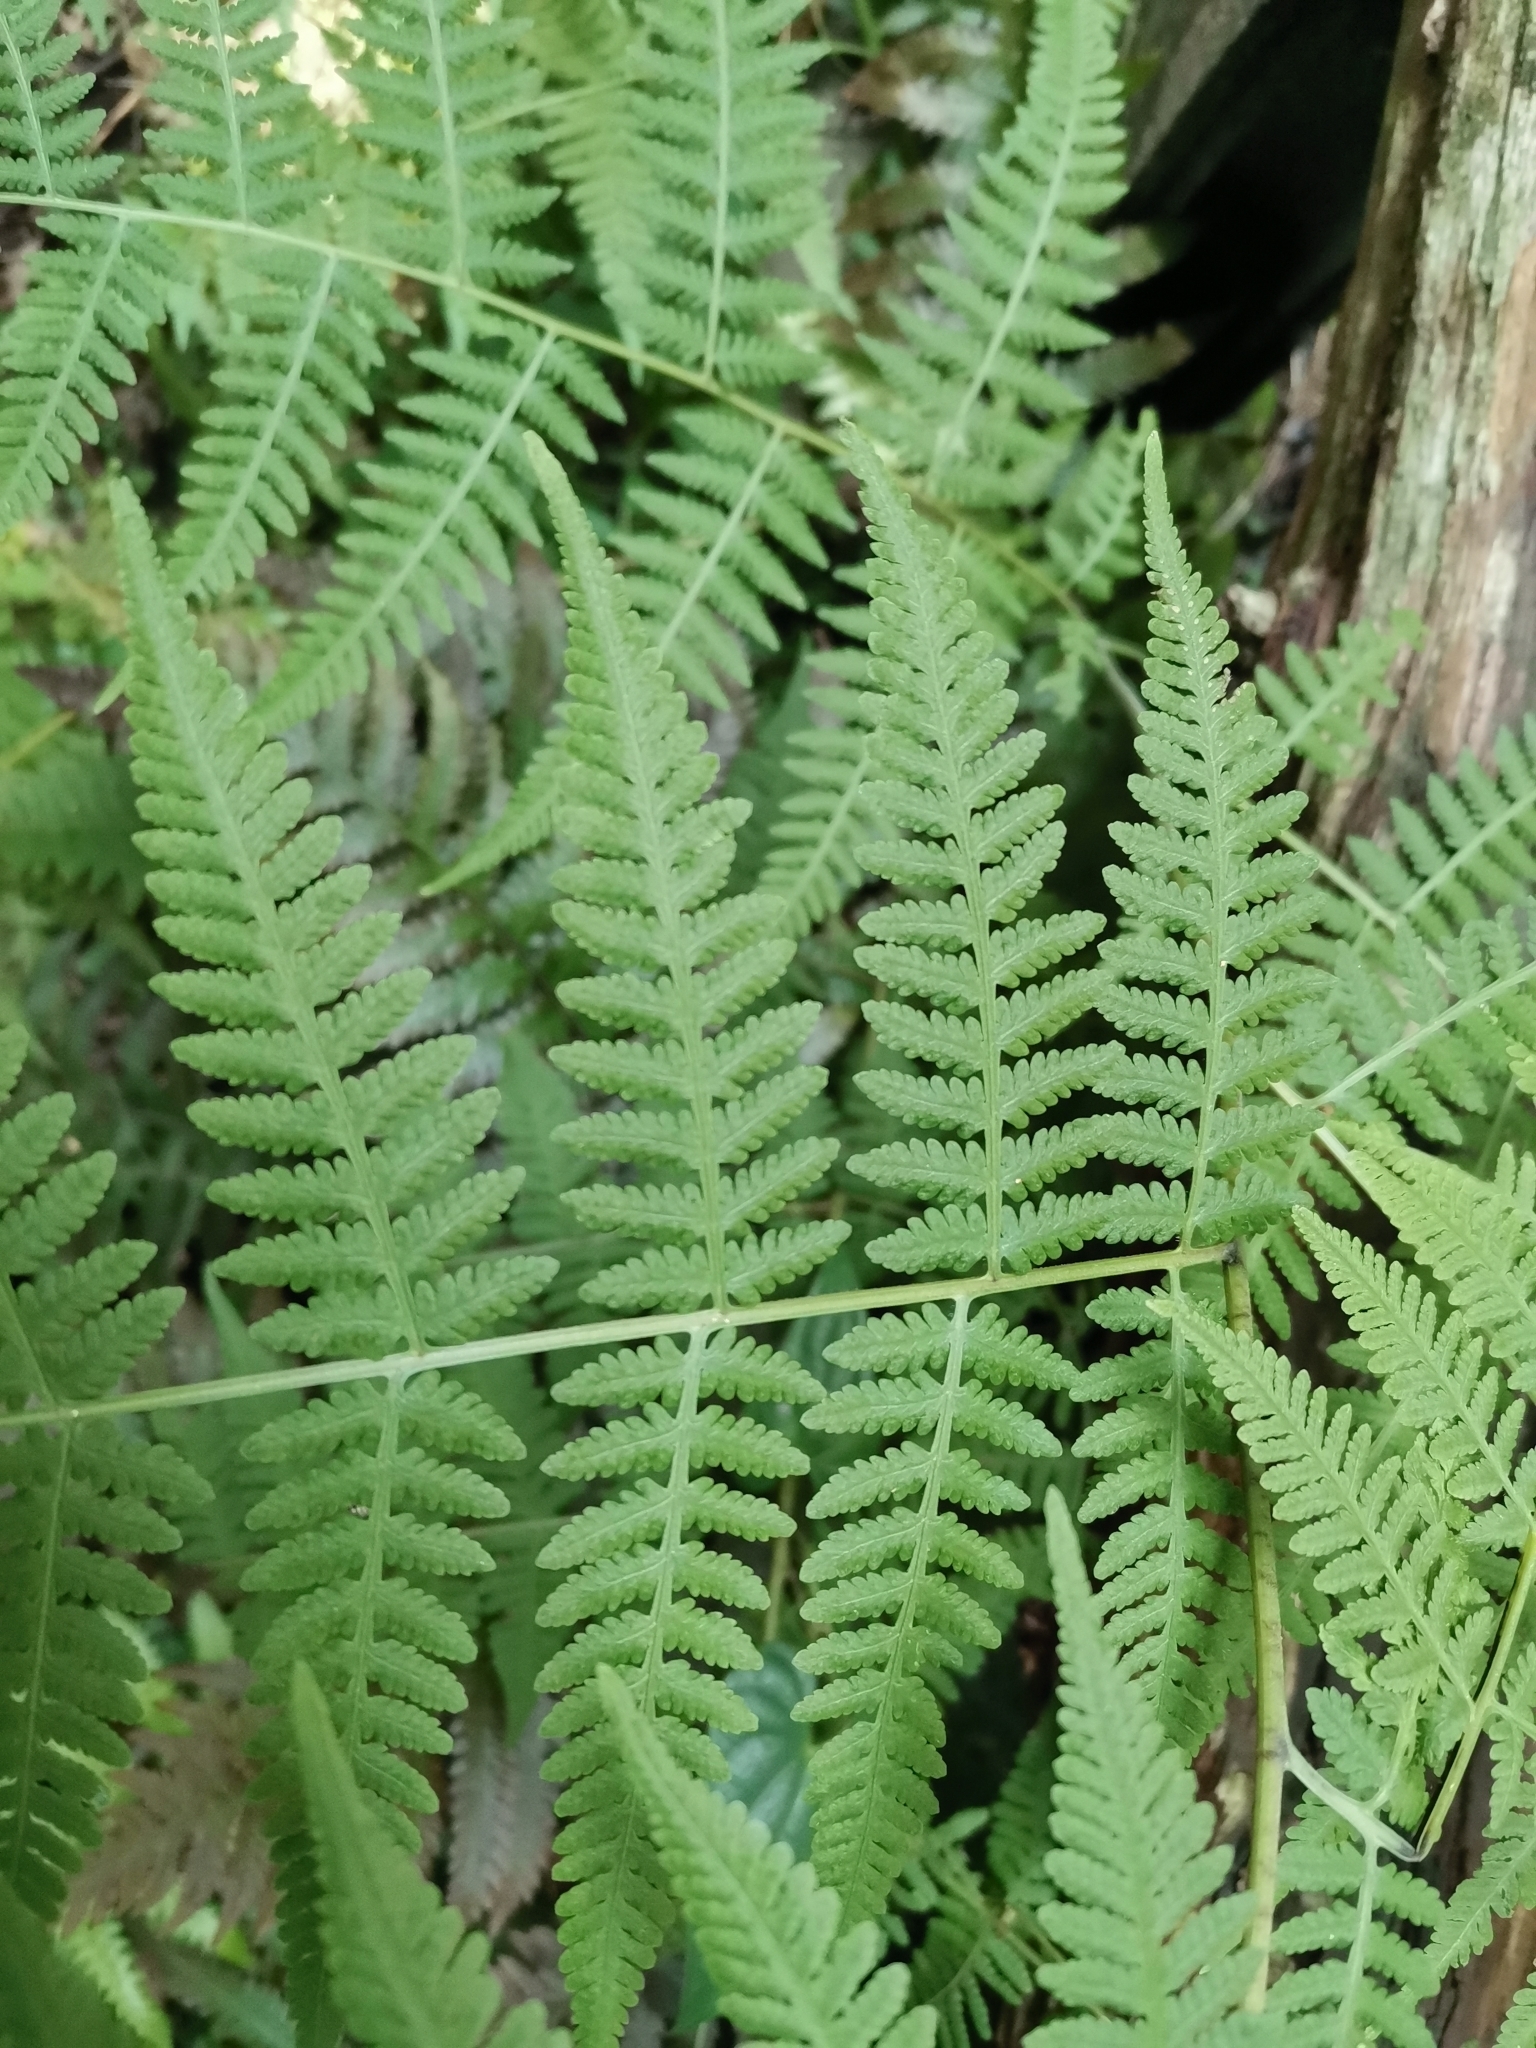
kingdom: Plantae
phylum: Tracheophyta
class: Polypodiopsida
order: Polypodiales
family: Thelypteridaceae
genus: Macrothelypteris
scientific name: Macrothelypteris viridifrons
